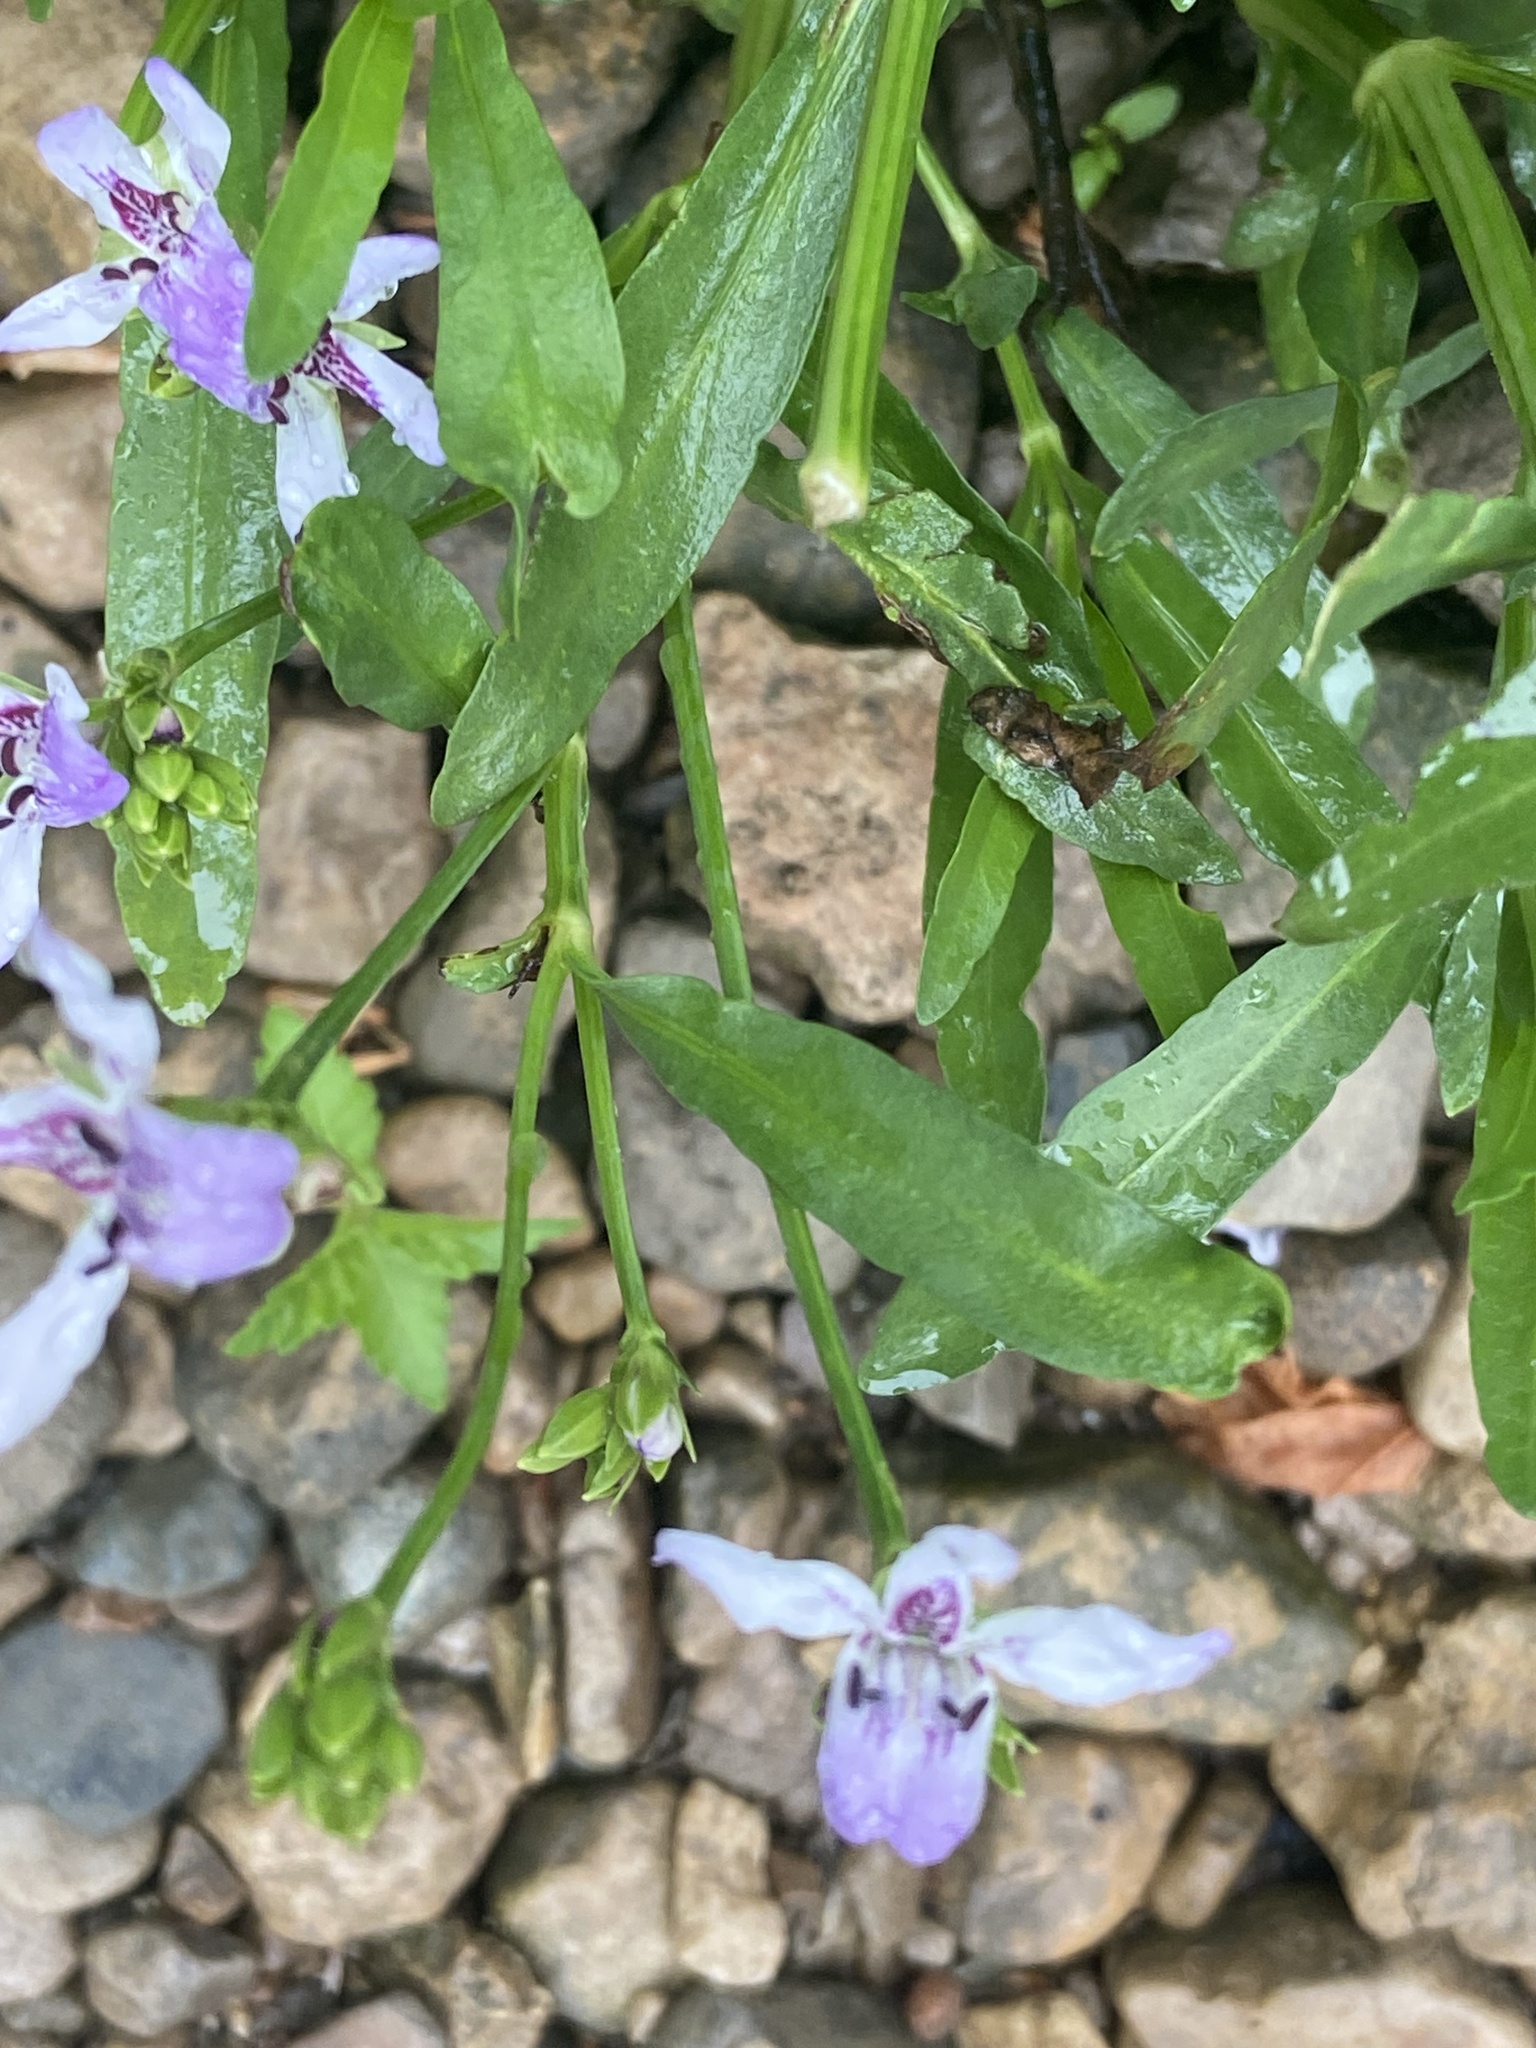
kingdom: Plantae
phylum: Tracheophyta
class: Magnoliopsida
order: Lamiales
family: Acanthaceae
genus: Dianthera
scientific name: Dianthera americana
